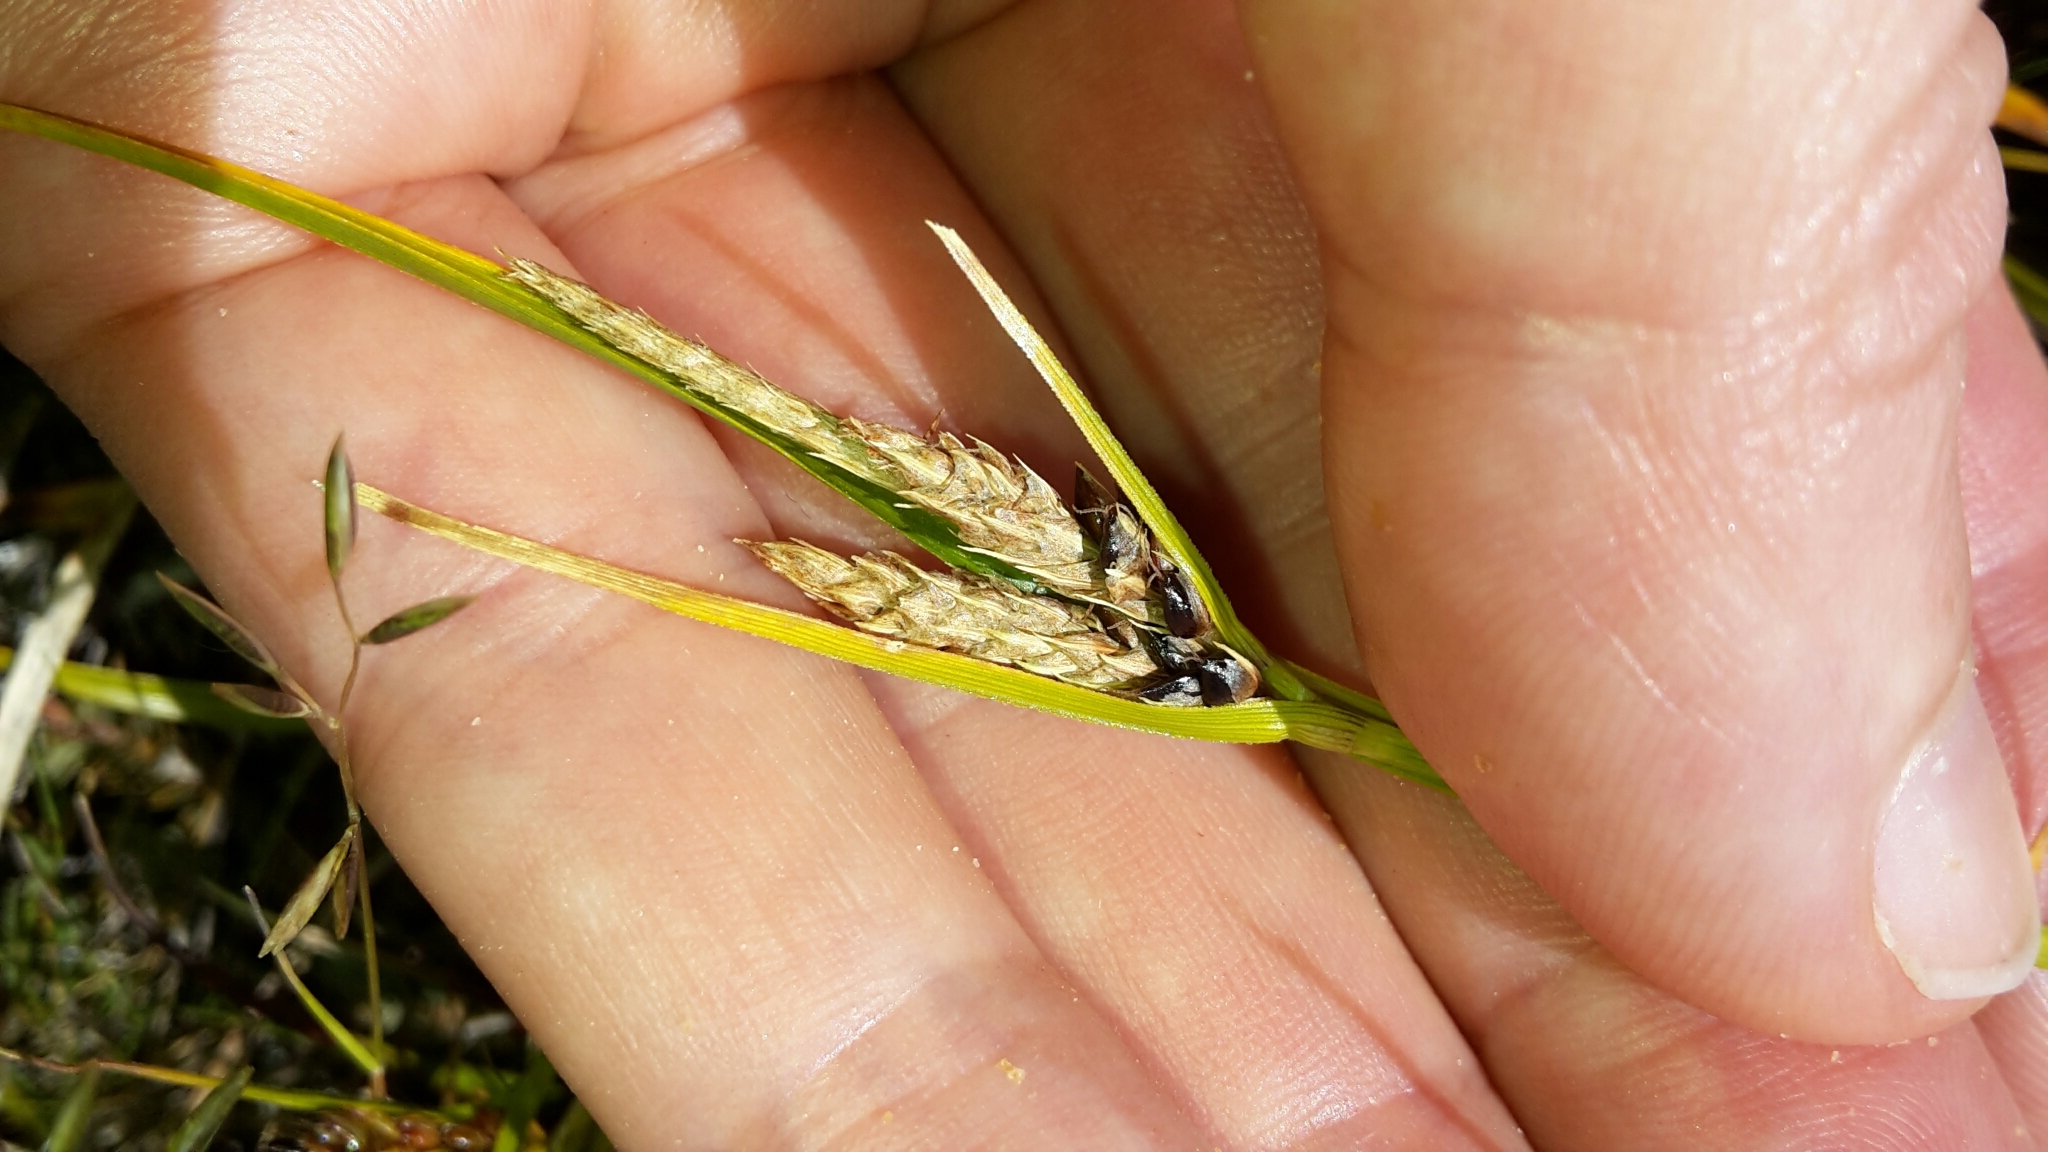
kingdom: Plantae
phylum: Tracheophyta
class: Liliopsida
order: Poales
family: Cyperaceae
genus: Carex
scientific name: Carex wakatipu
